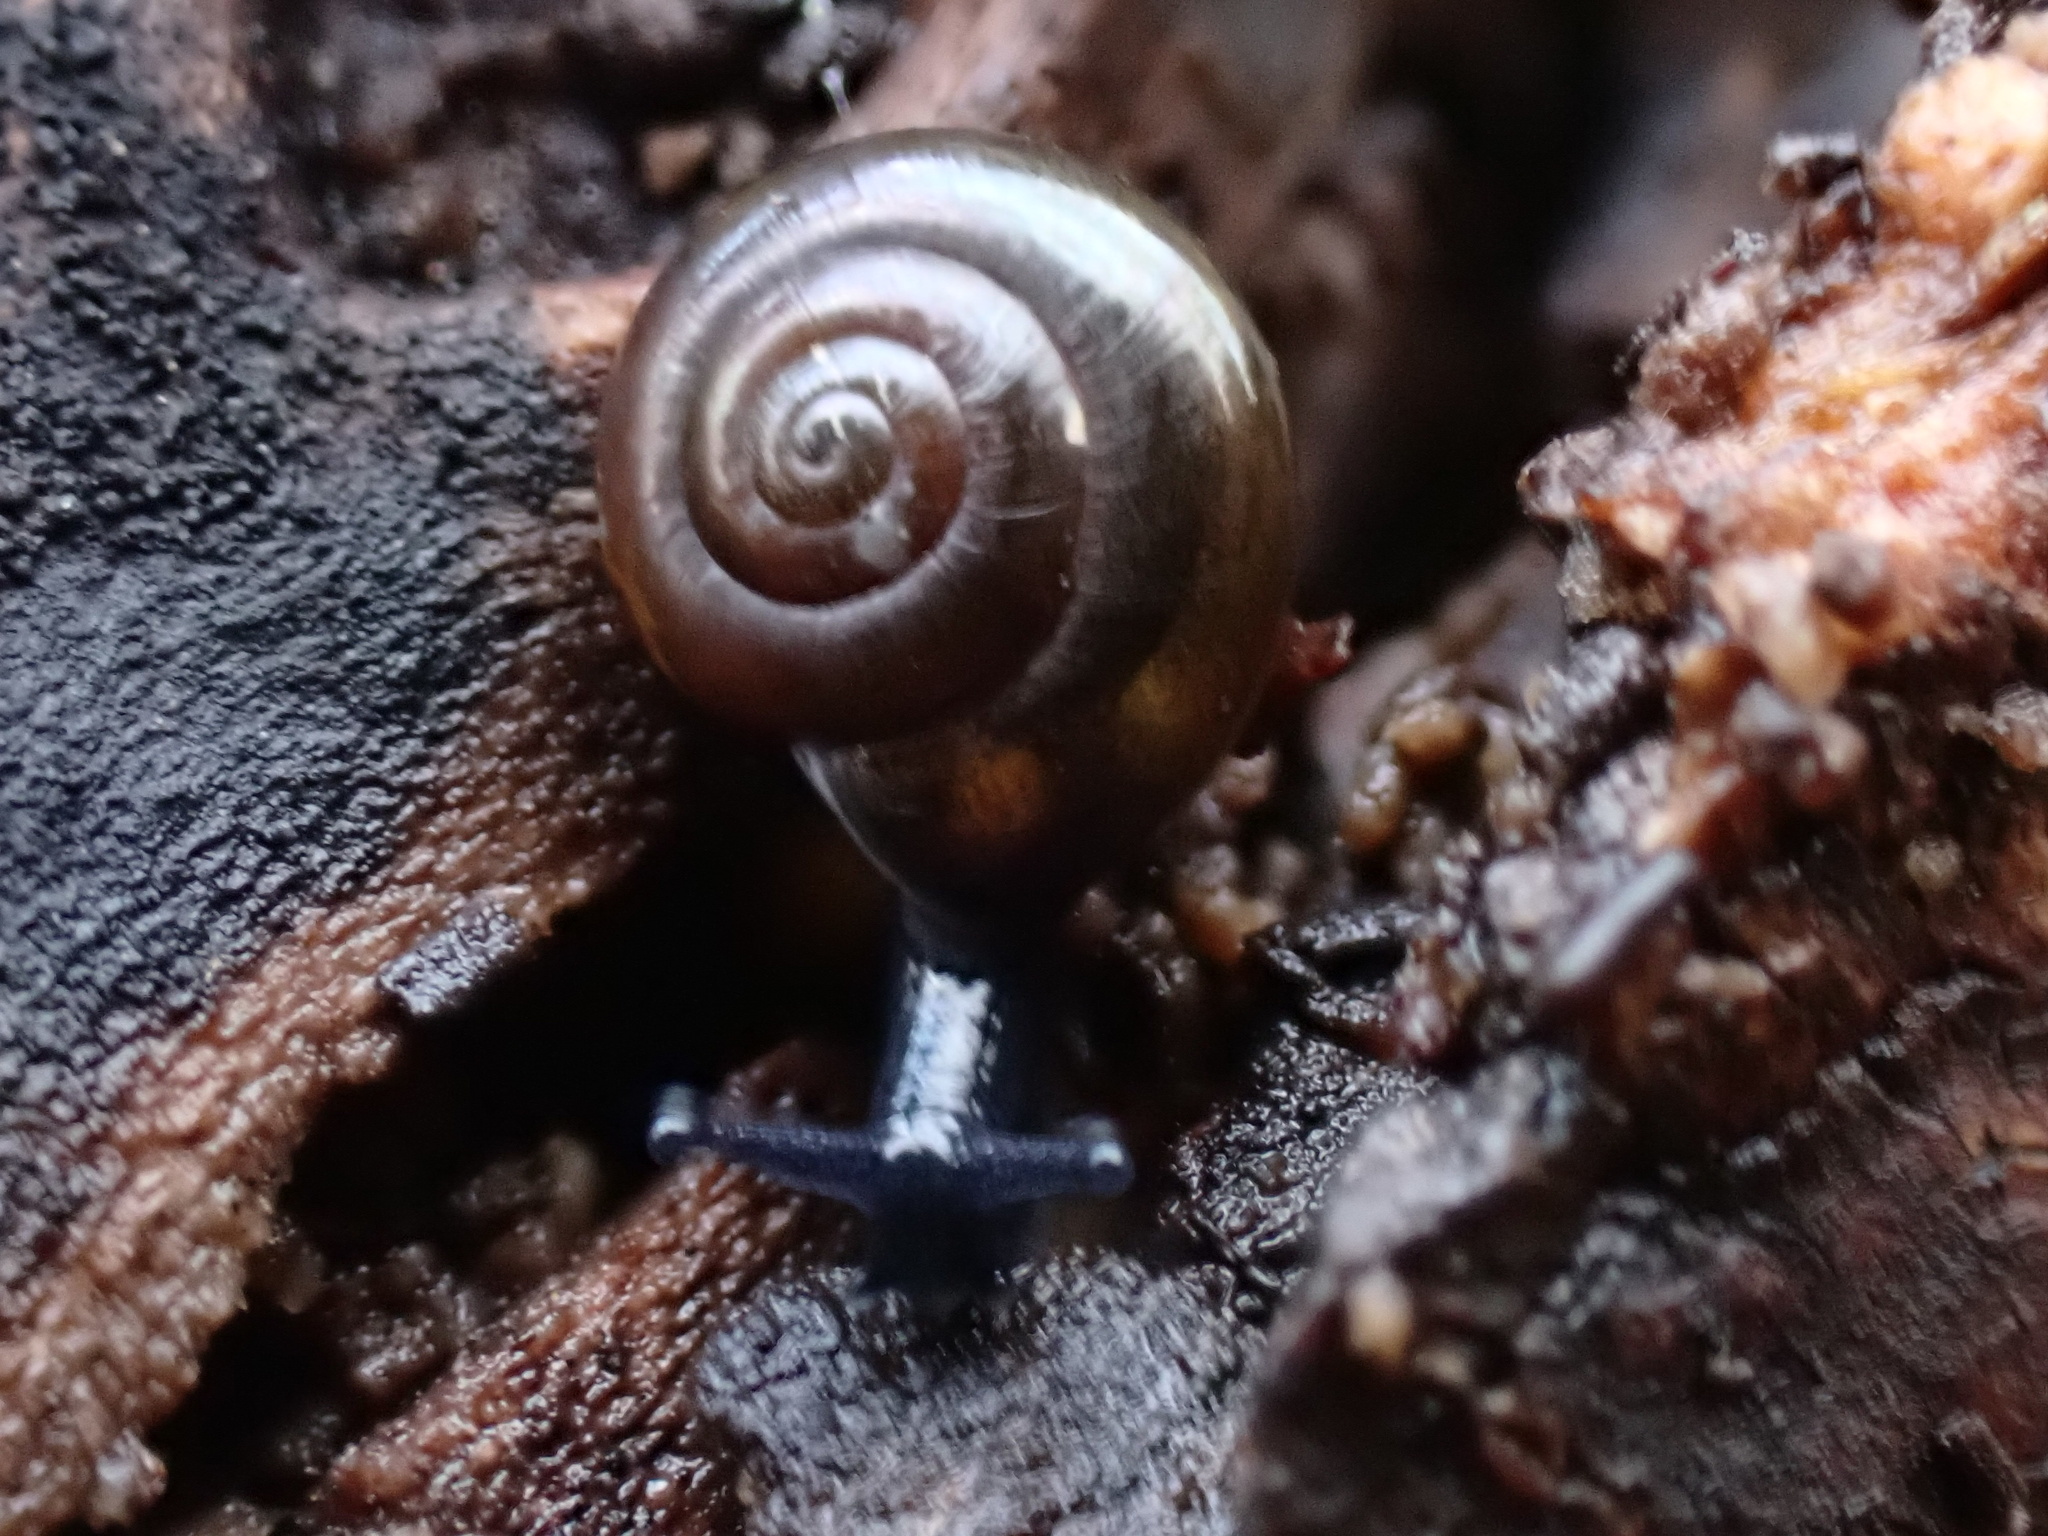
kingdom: Animalia
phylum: Mollusca
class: Gastropoda
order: Stylommatophora
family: Gastrodontidae
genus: Zonitoides
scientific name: Zonitoides nitidus
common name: Shiny glass snail
